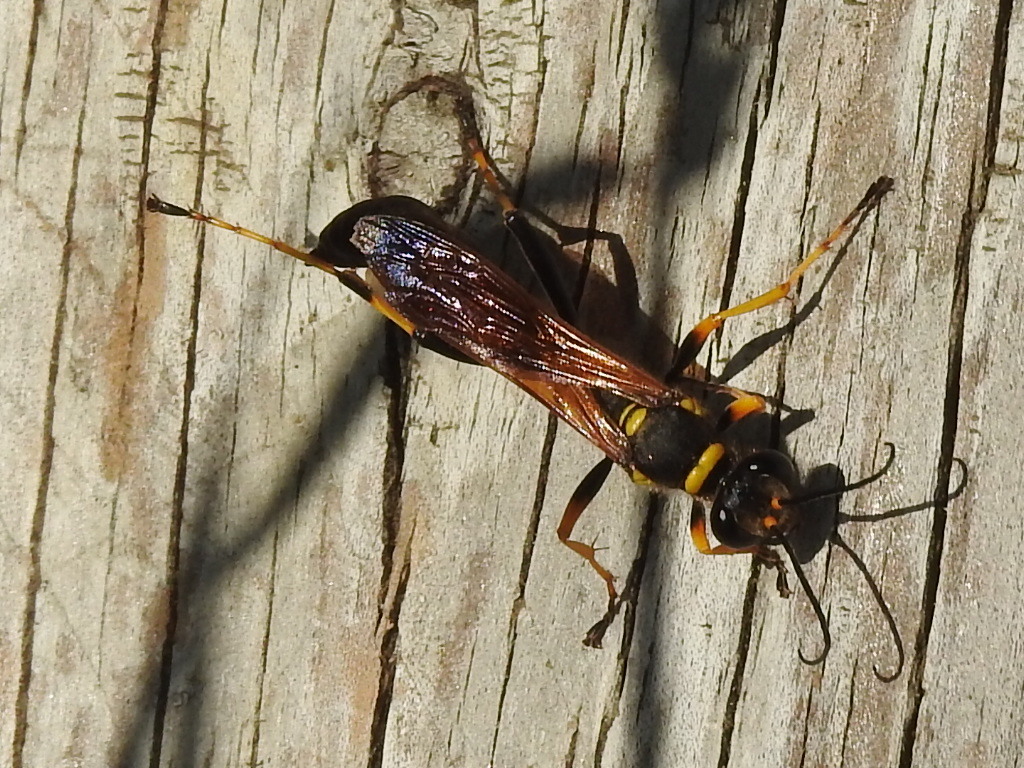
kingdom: Animalia
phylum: Arthropoda
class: Insecta
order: Hymenoptera
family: Sphecidae
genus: Sceliphron
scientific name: Sceliphron caementarium
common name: Mud dauber
